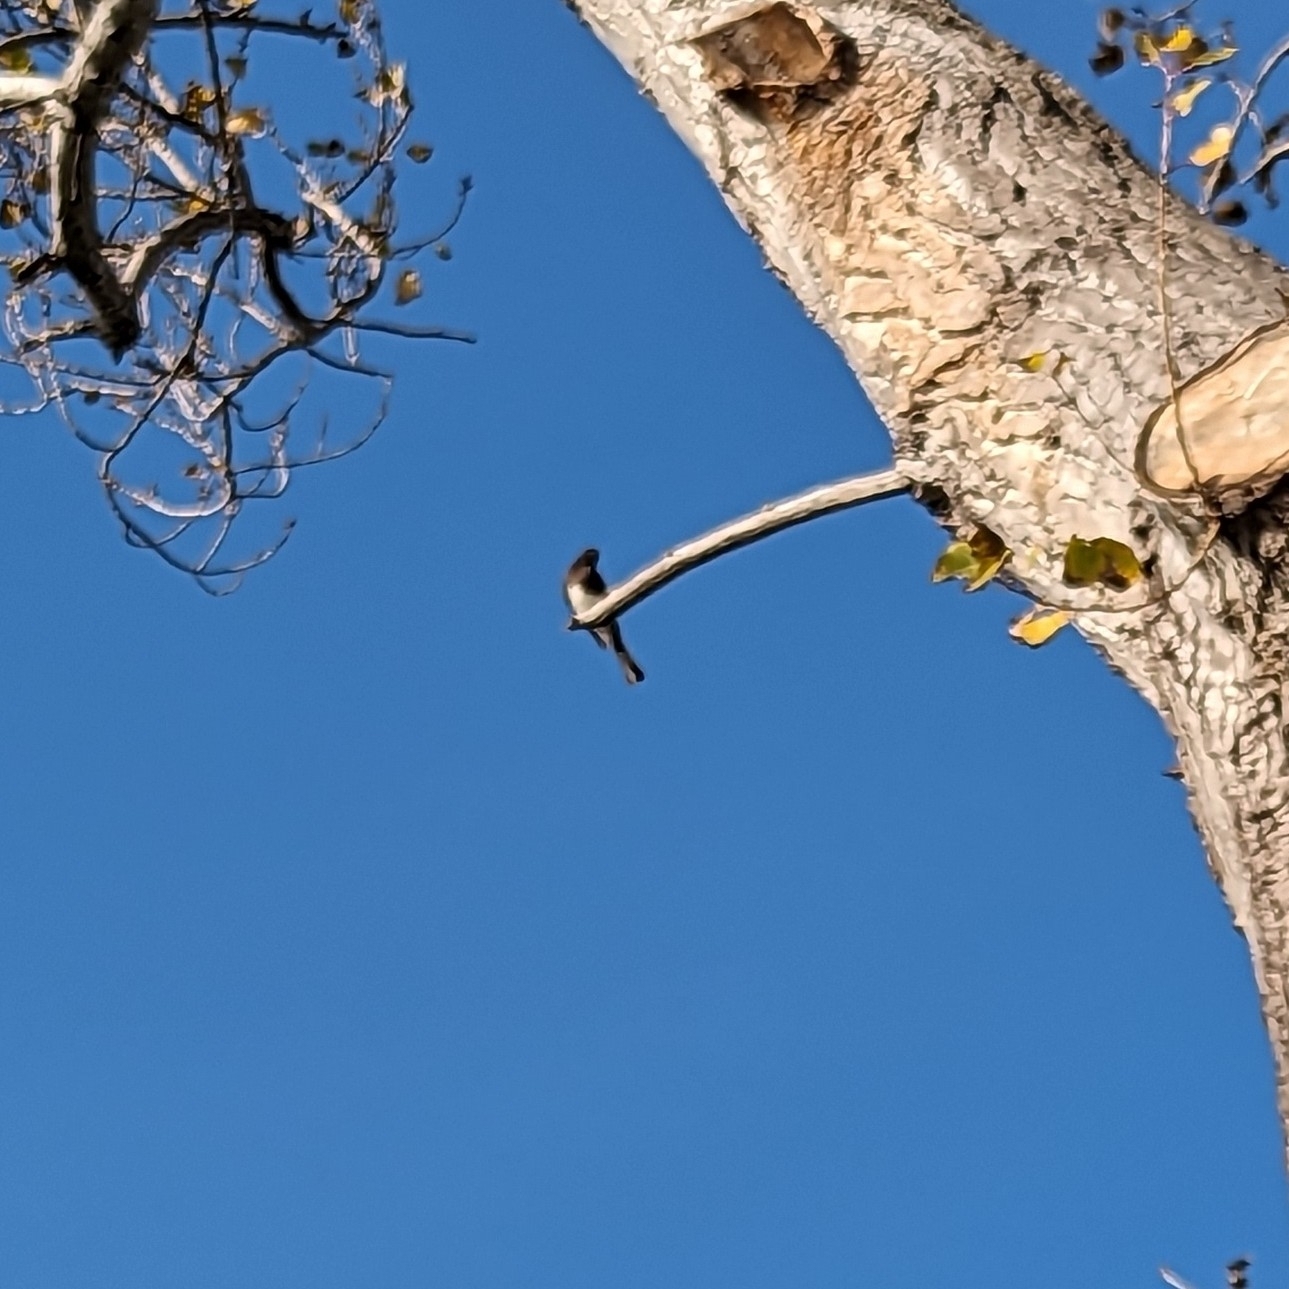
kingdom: Animalia
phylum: Chordata
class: Aves
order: Passeriformes
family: Tyrannidae
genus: Sayornis
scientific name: Sayornis nigricans
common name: Black phoebe
